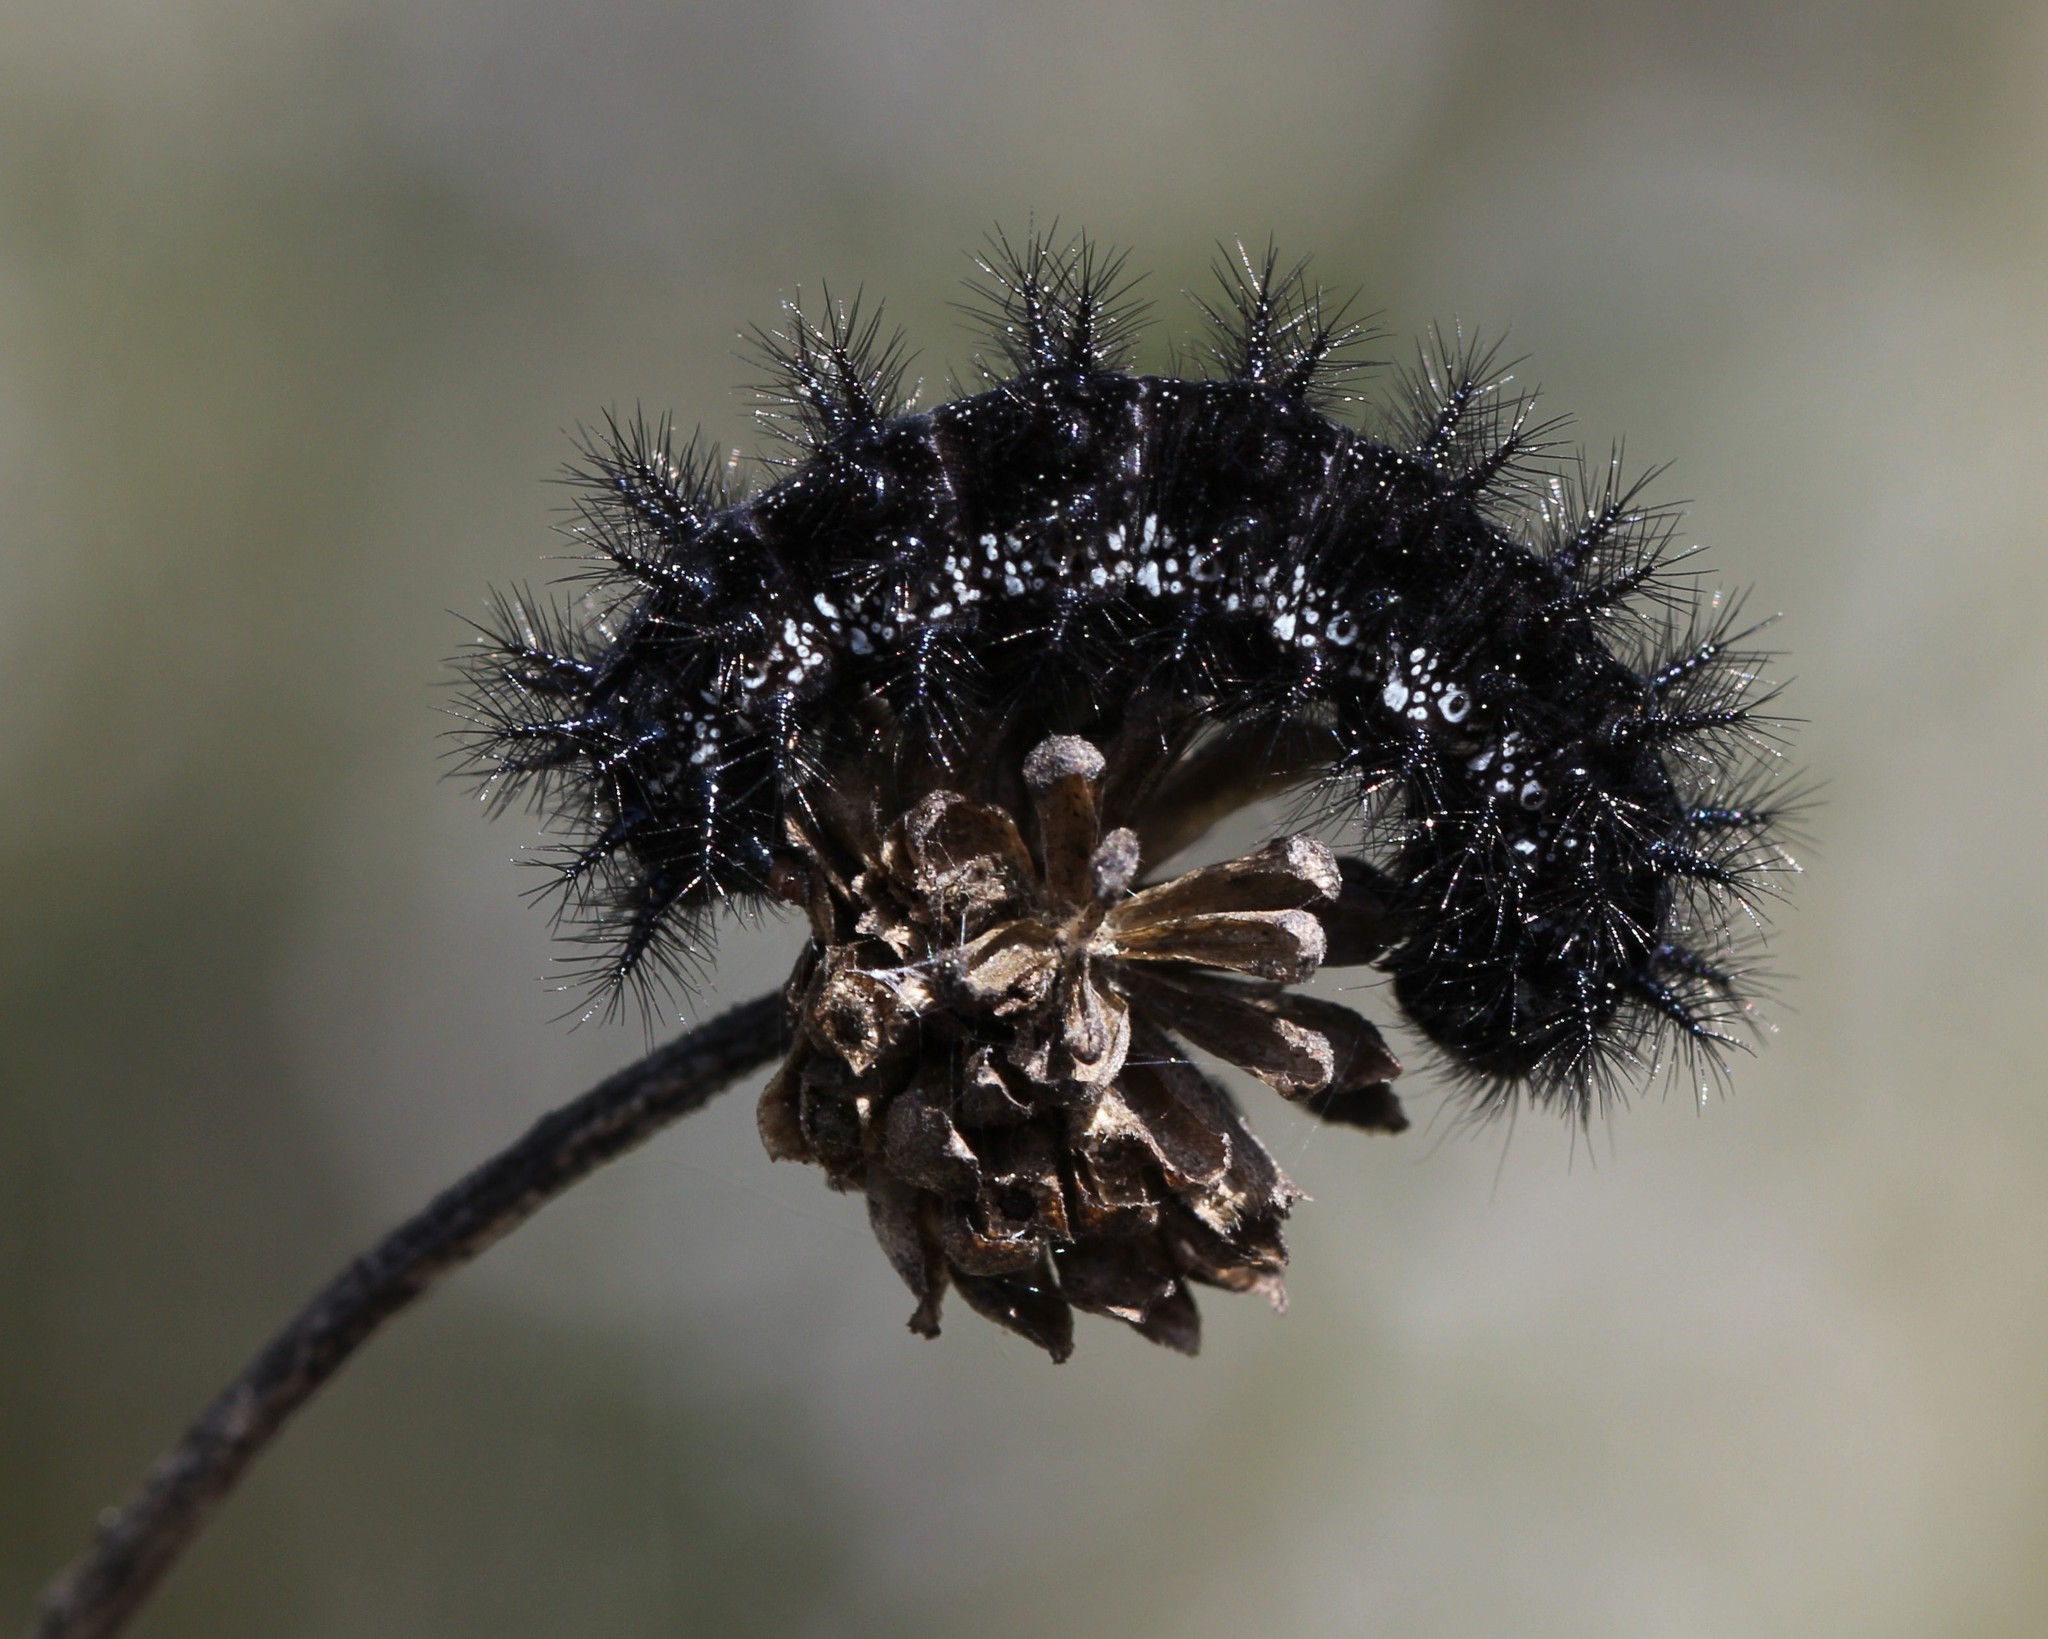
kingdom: Animalia
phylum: Arthropoda
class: Insecta
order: Lepidoptera
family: Nymphalidae
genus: Euphydryas
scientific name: Euphydryas desfontainii
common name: Spanish fritillary
